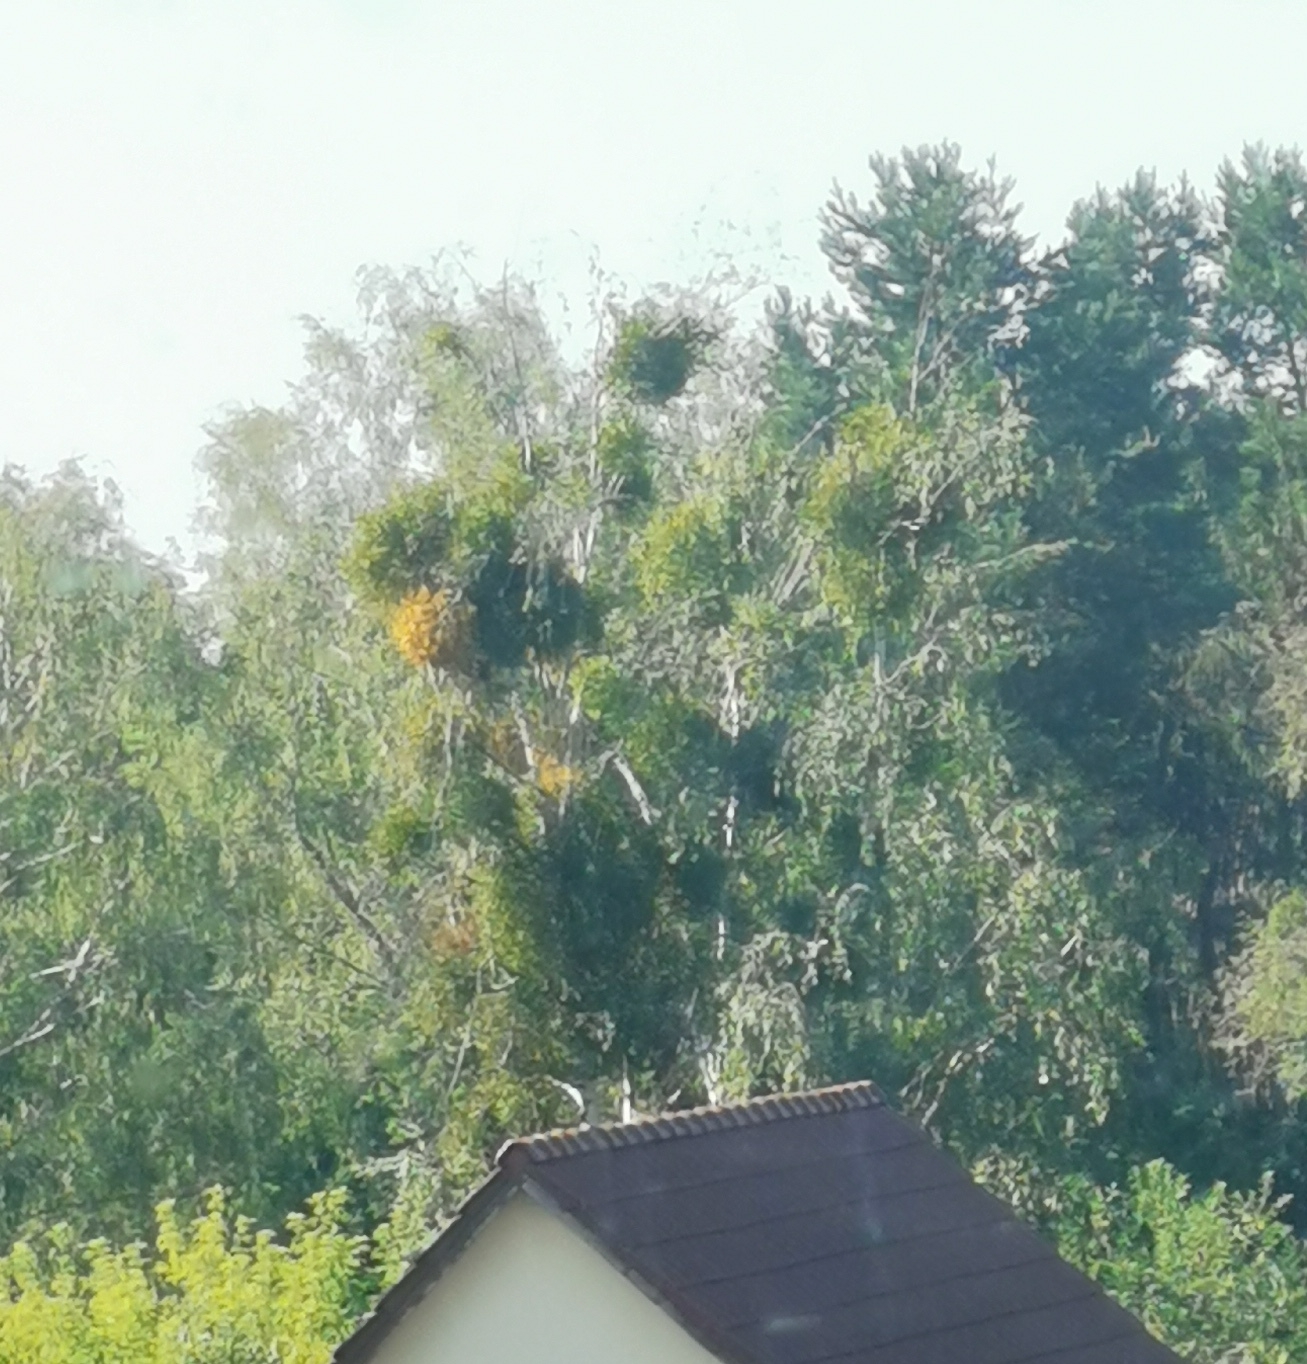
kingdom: Plantae
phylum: Tracheophyta
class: Magnoliopsida
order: Santalales
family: Viscaceae
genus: Viscum
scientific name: Viscum album
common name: Mistletoe
